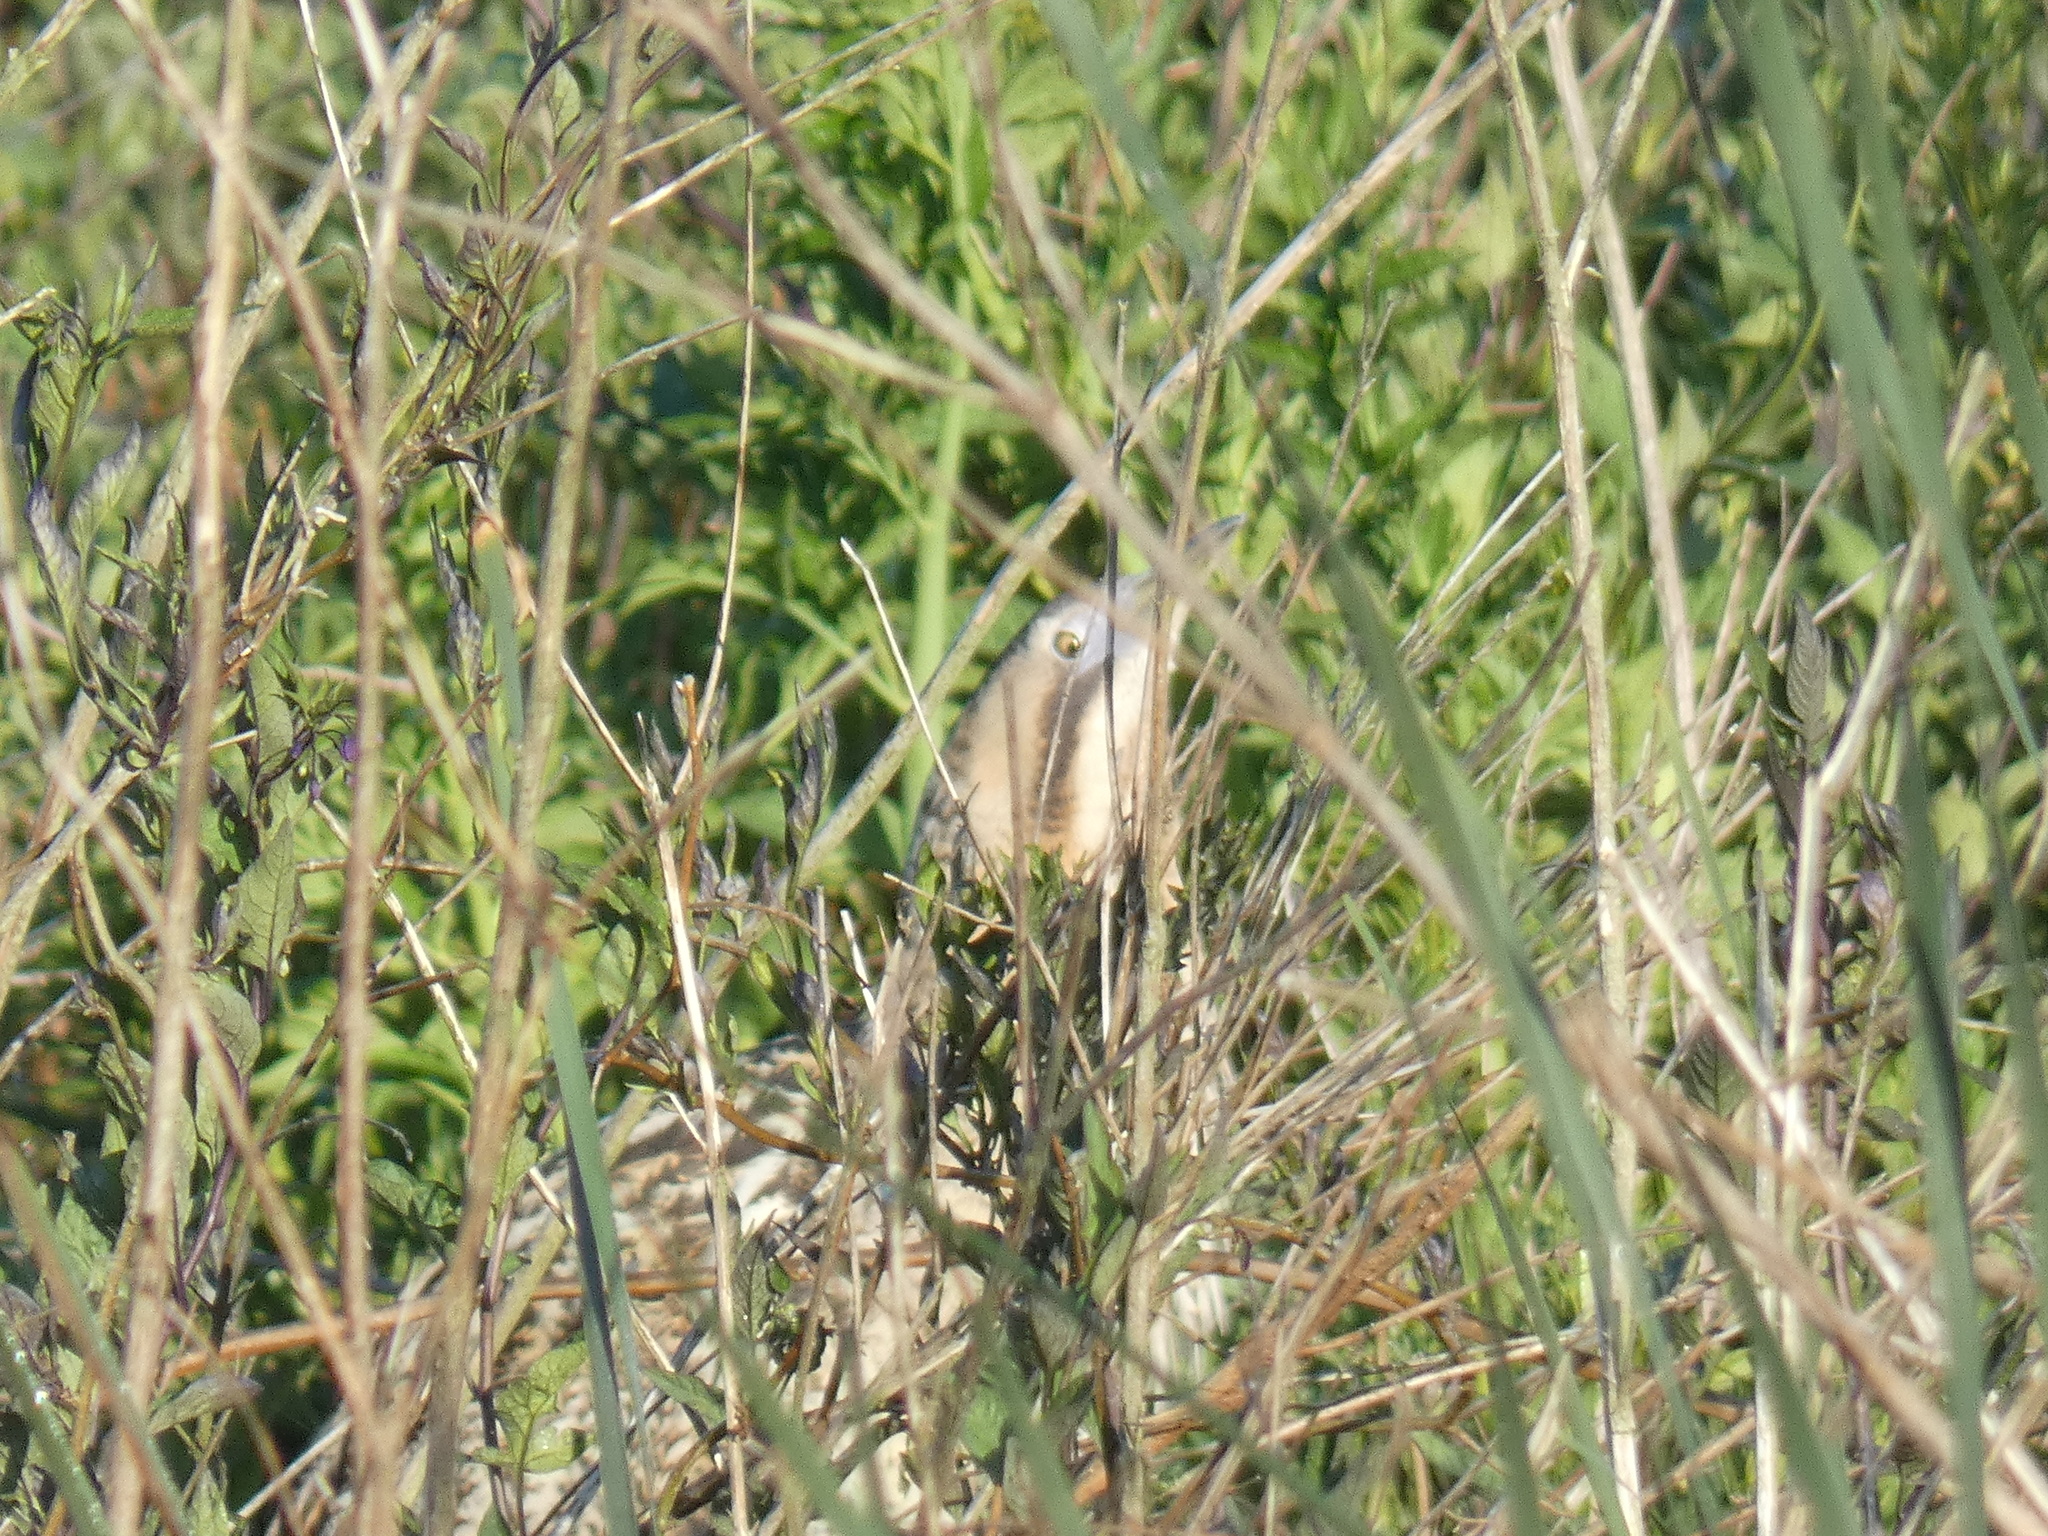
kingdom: Animalia
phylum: Chordata
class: Aves
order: Pelecaniformes
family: Ardeidae
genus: Botaurus
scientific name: Botaurus stellaris
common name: Eurasian bittern
